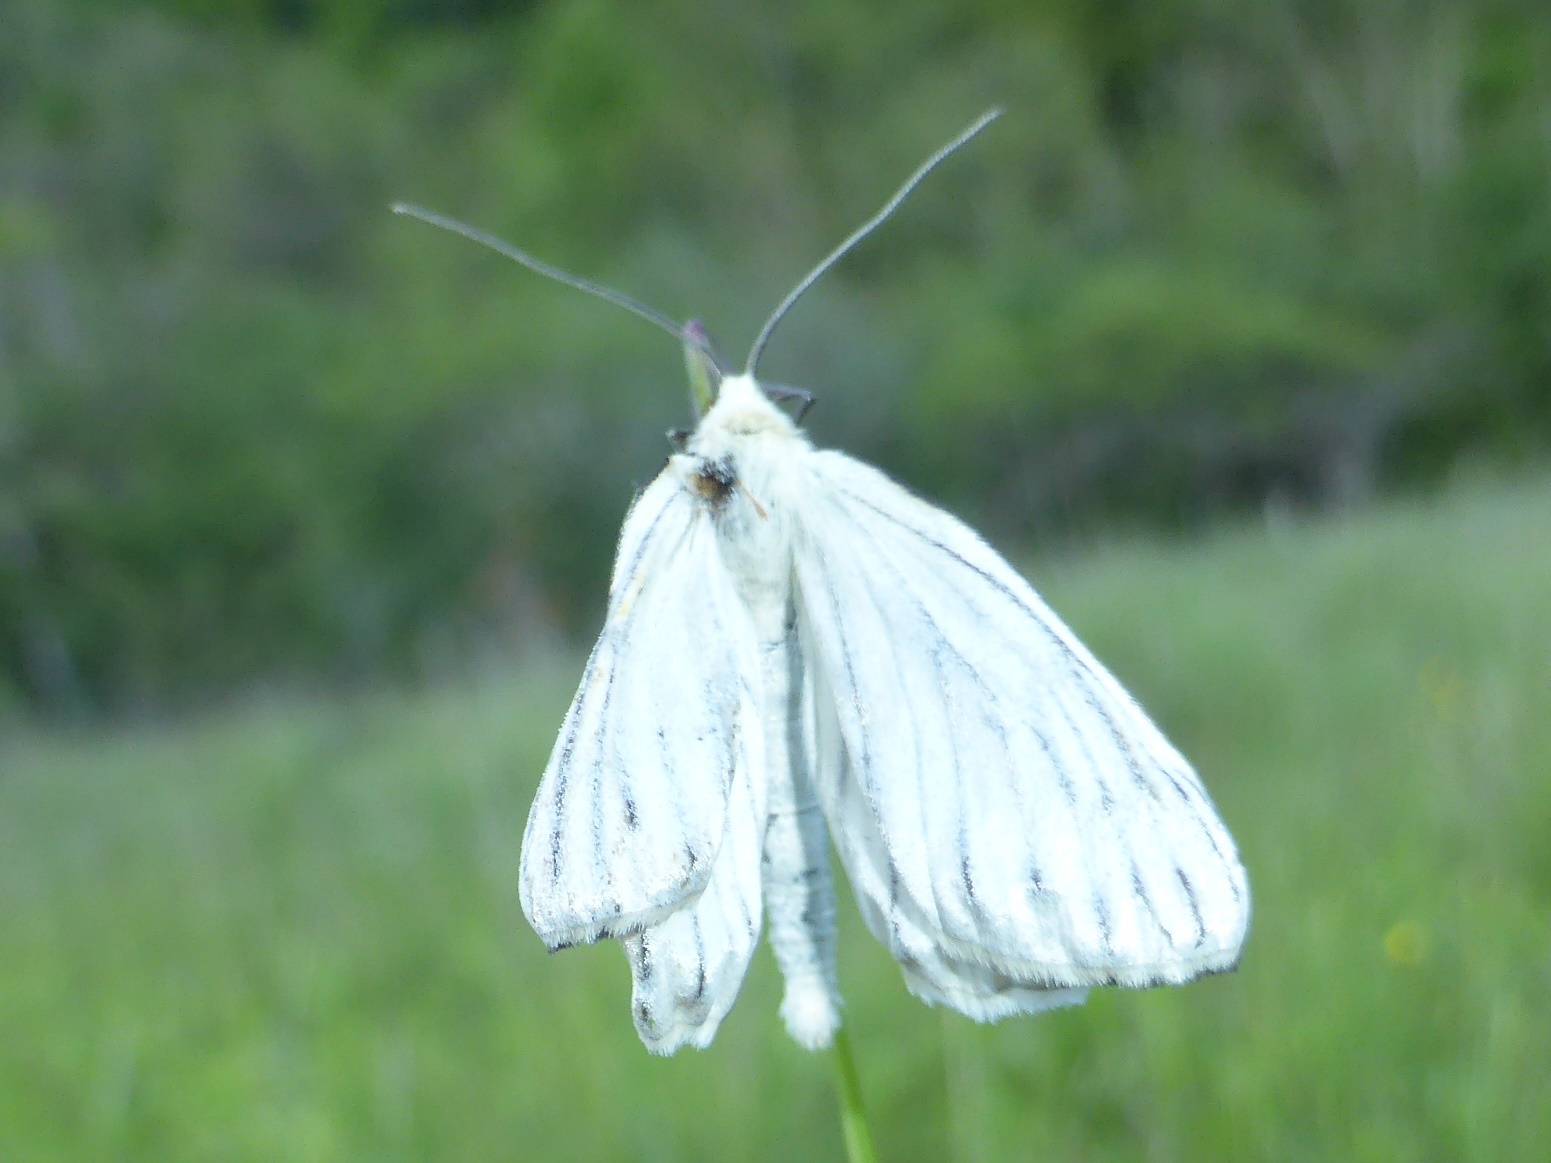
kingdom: Animalia
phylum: Arthropoda
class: Insecta
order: Lepidoptera
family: Geometridae
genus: Siona
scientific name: Siona lineata
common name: Black-veined moth
